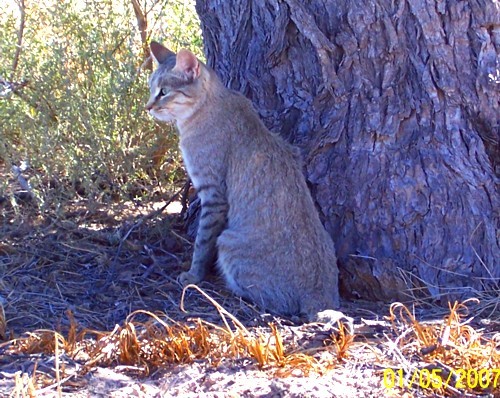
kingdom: Animalia
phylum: Chordata
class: Mammalia
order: Carnivora
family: Felidae
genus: Felis
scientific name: Felis silvestris
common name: Wildcat
